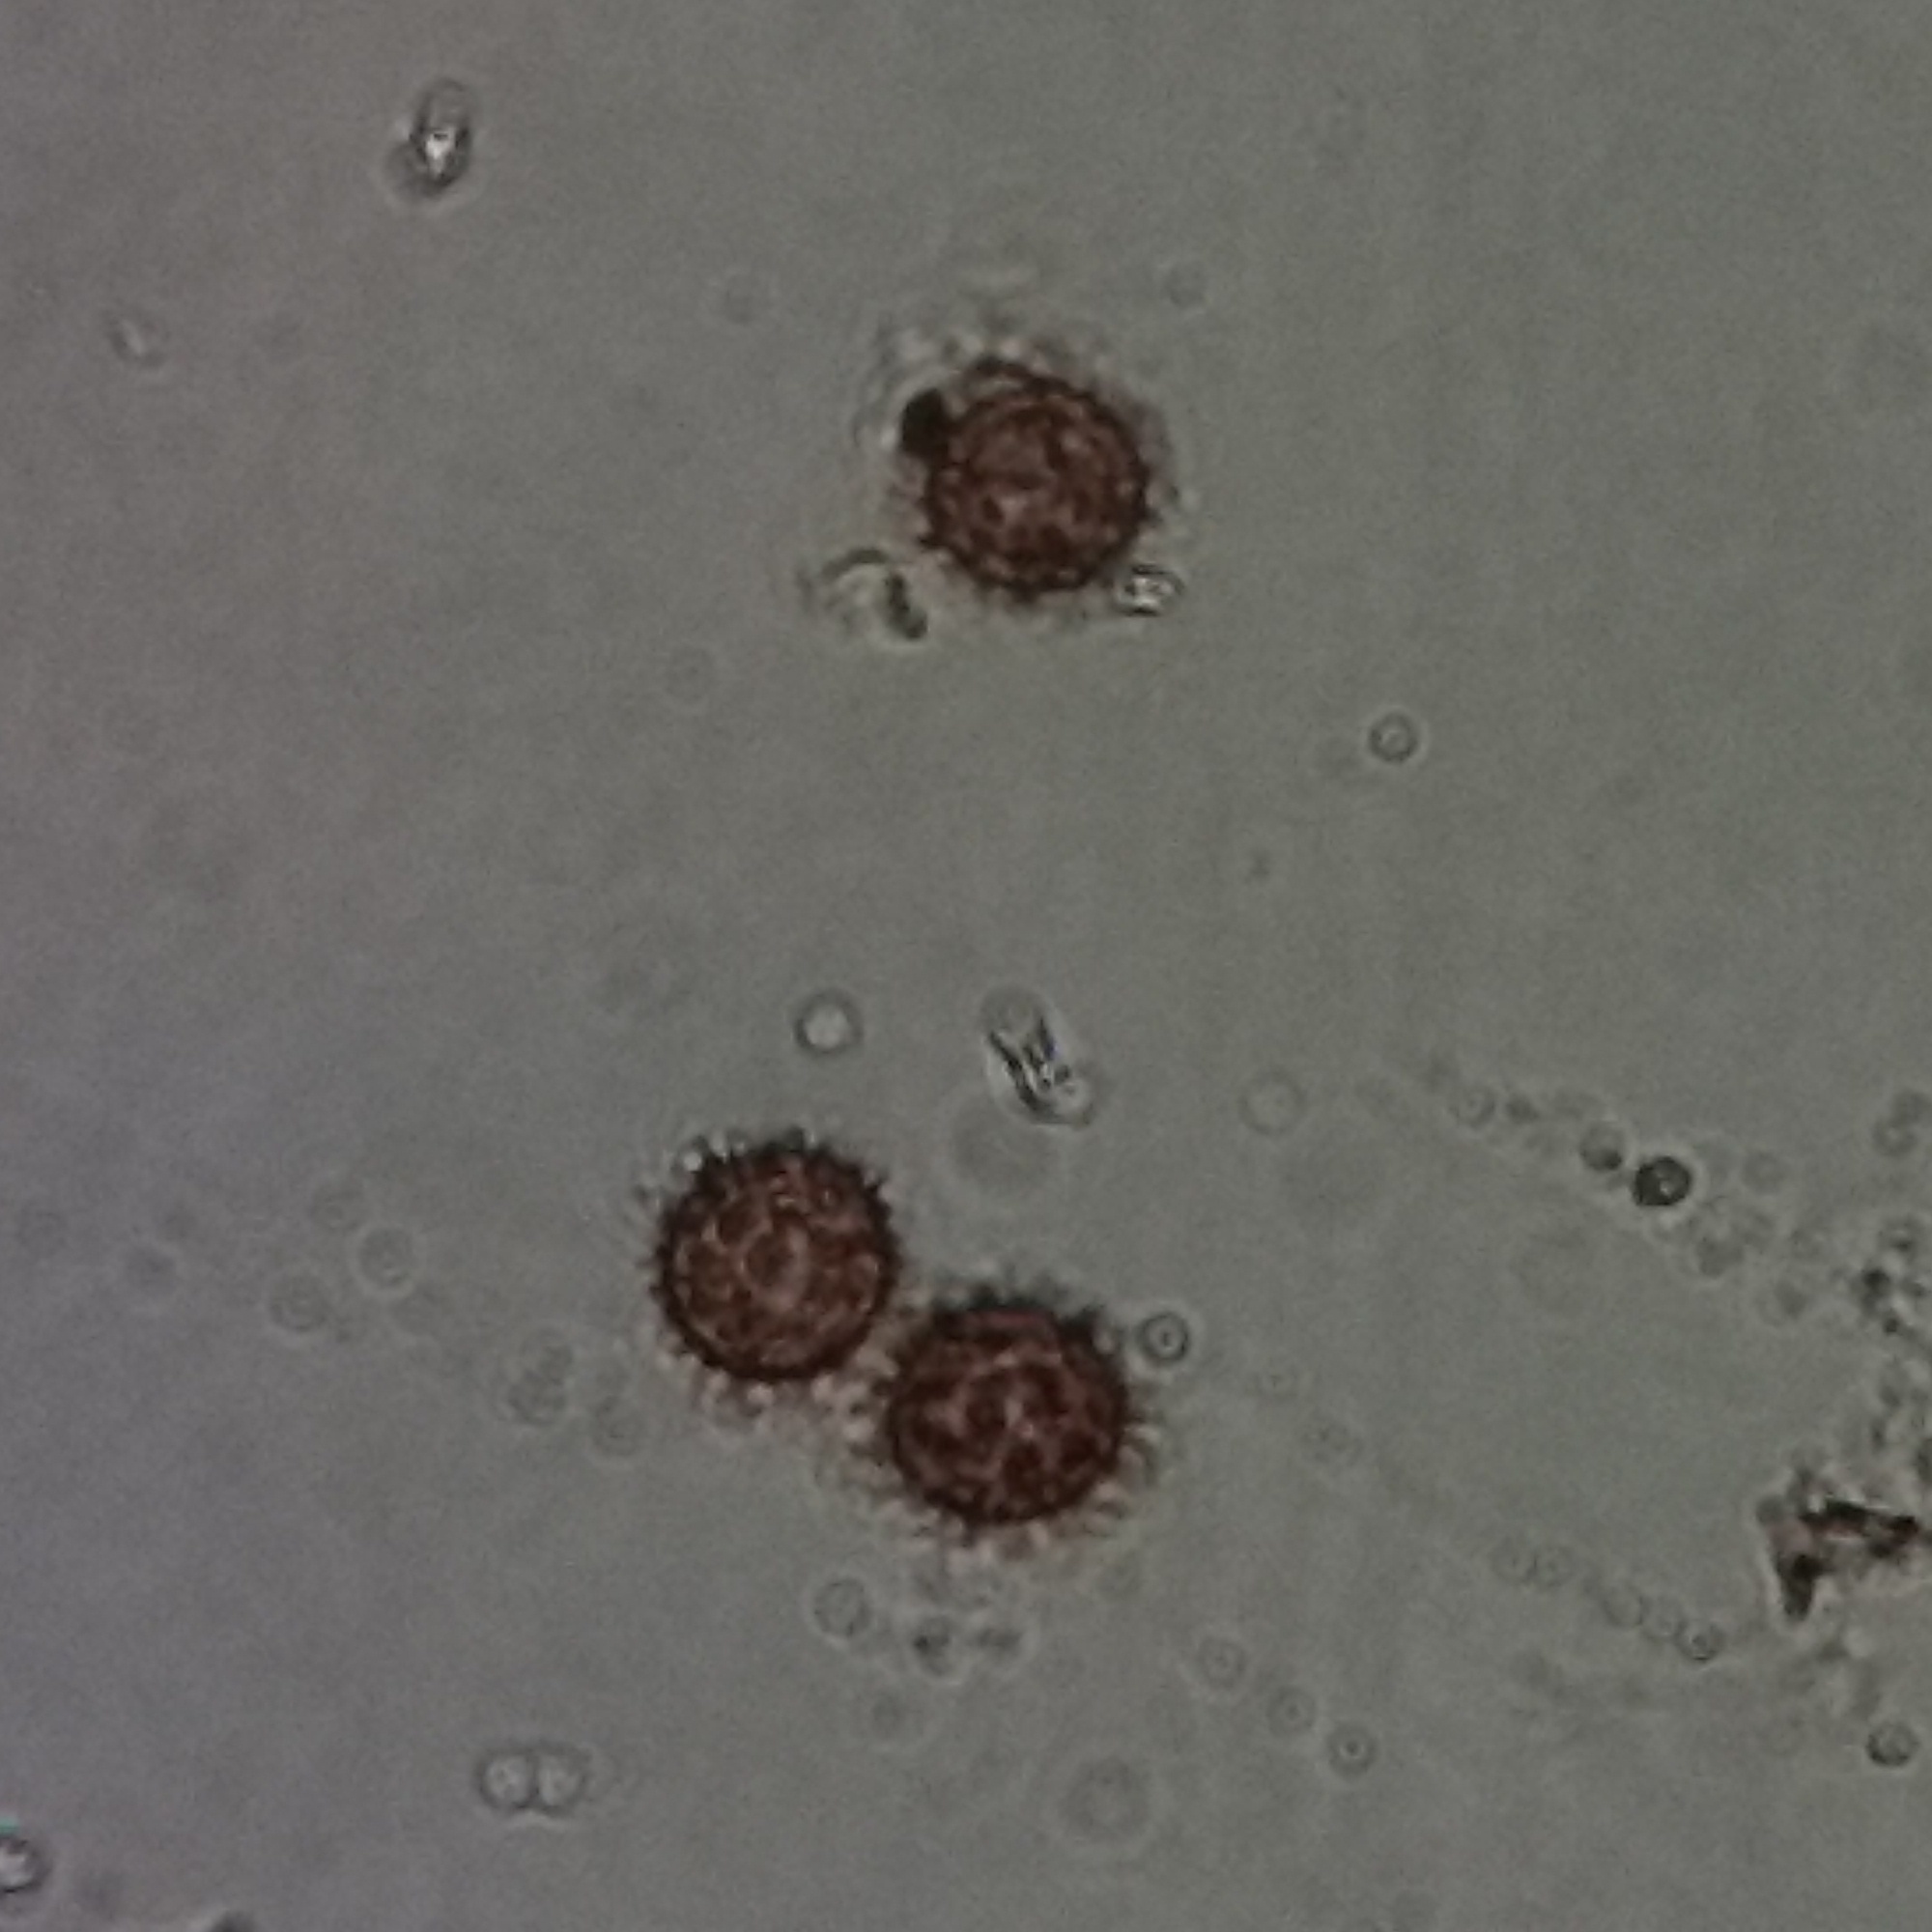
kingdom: Fungi
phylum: Basidiomycota
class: Agaricomycetes
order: Boletales
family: Sclerodermataceae
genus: Scleroderma
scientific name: Scleroderma citrinum
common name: Common earthball
